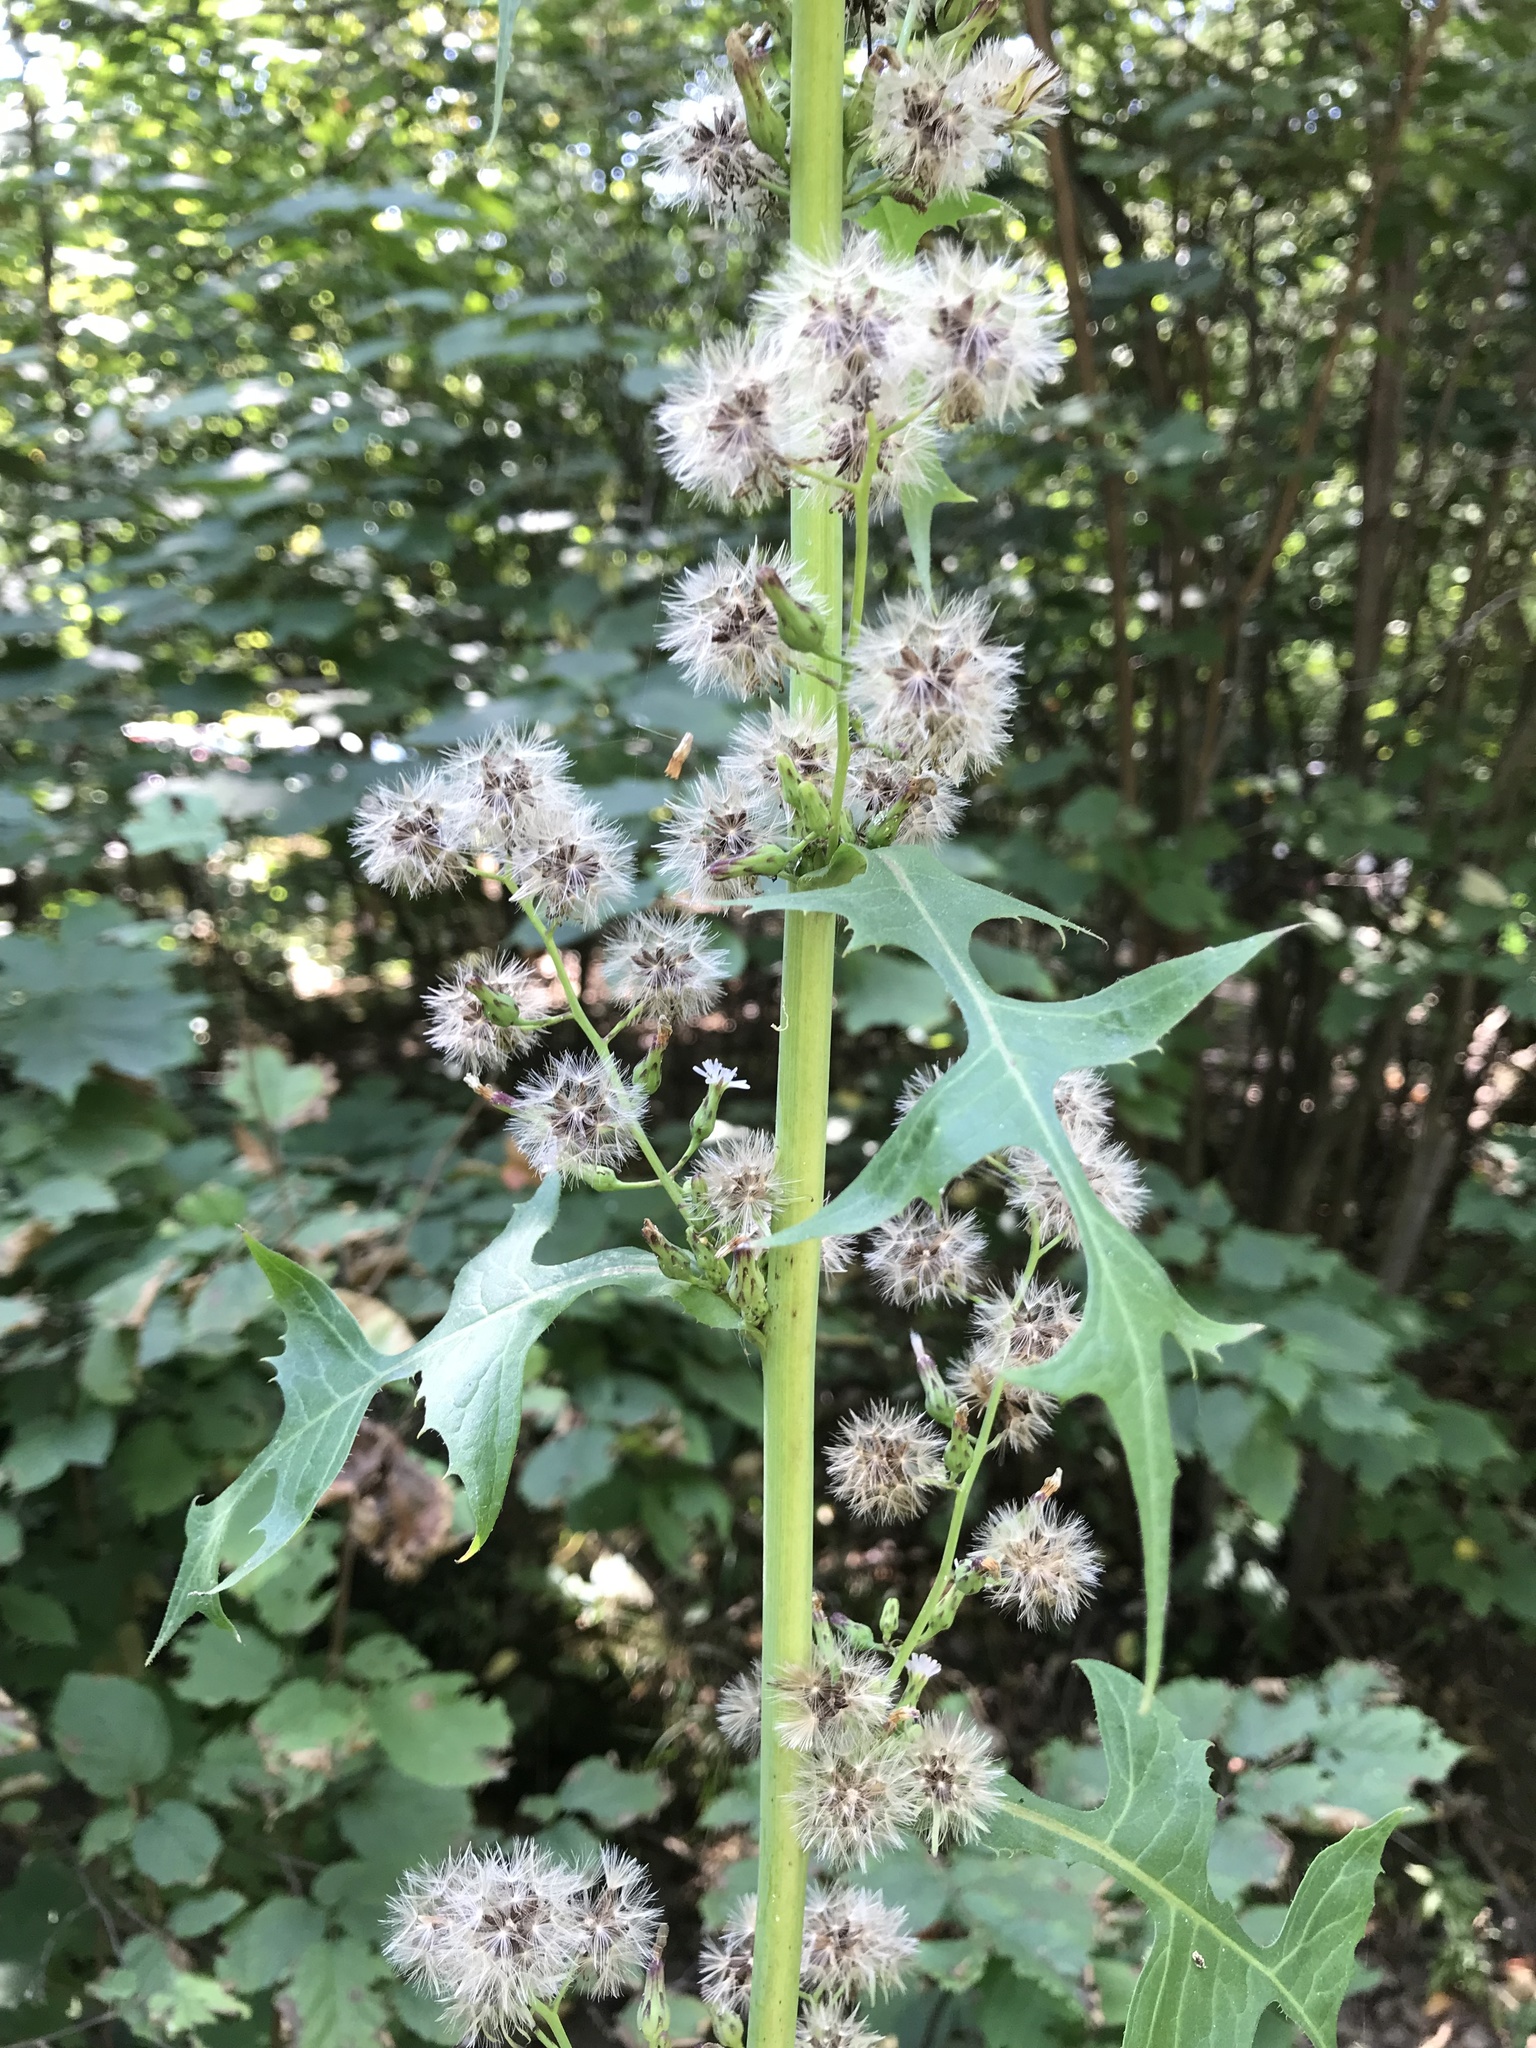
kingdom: Plantae
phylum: Tracheophyta
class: Magnoliopsida
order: Asterales
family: Asteraceae
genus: Lactuca
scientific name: Lactuca biennis
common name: Blue wood lettuce
